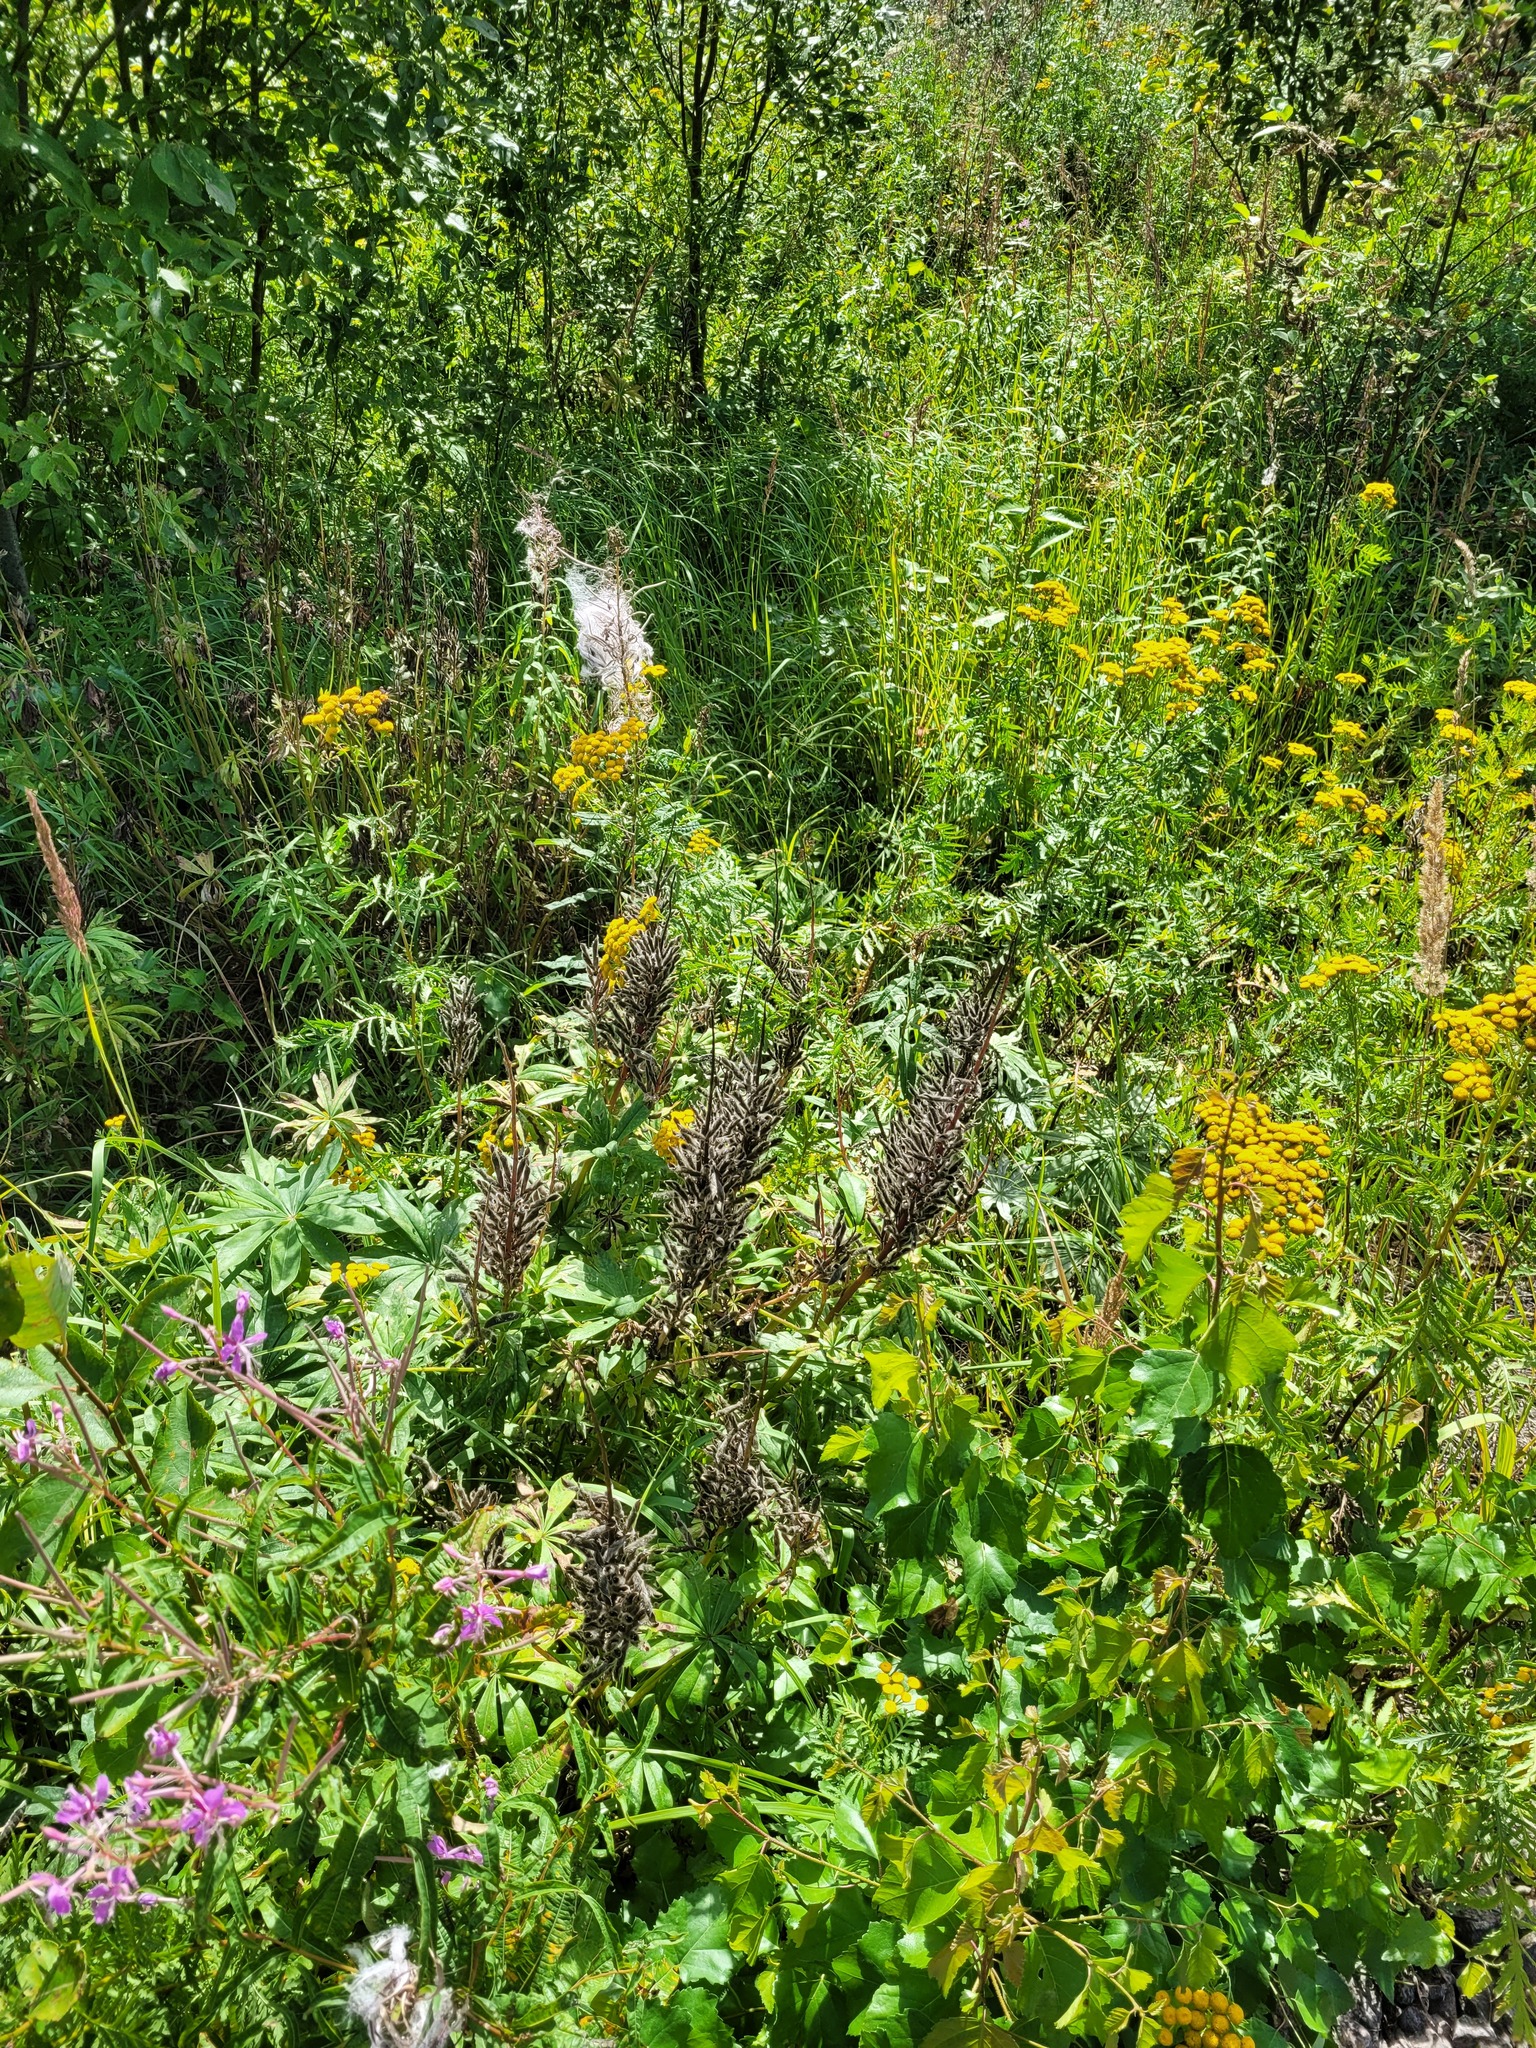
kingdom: Plantae
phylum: Tracheophyta
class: Magnoliopsida
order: Fabales
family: Fabaceae
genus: Lupinus
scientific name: Lupinus polyphyllus
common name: Garden lupin
